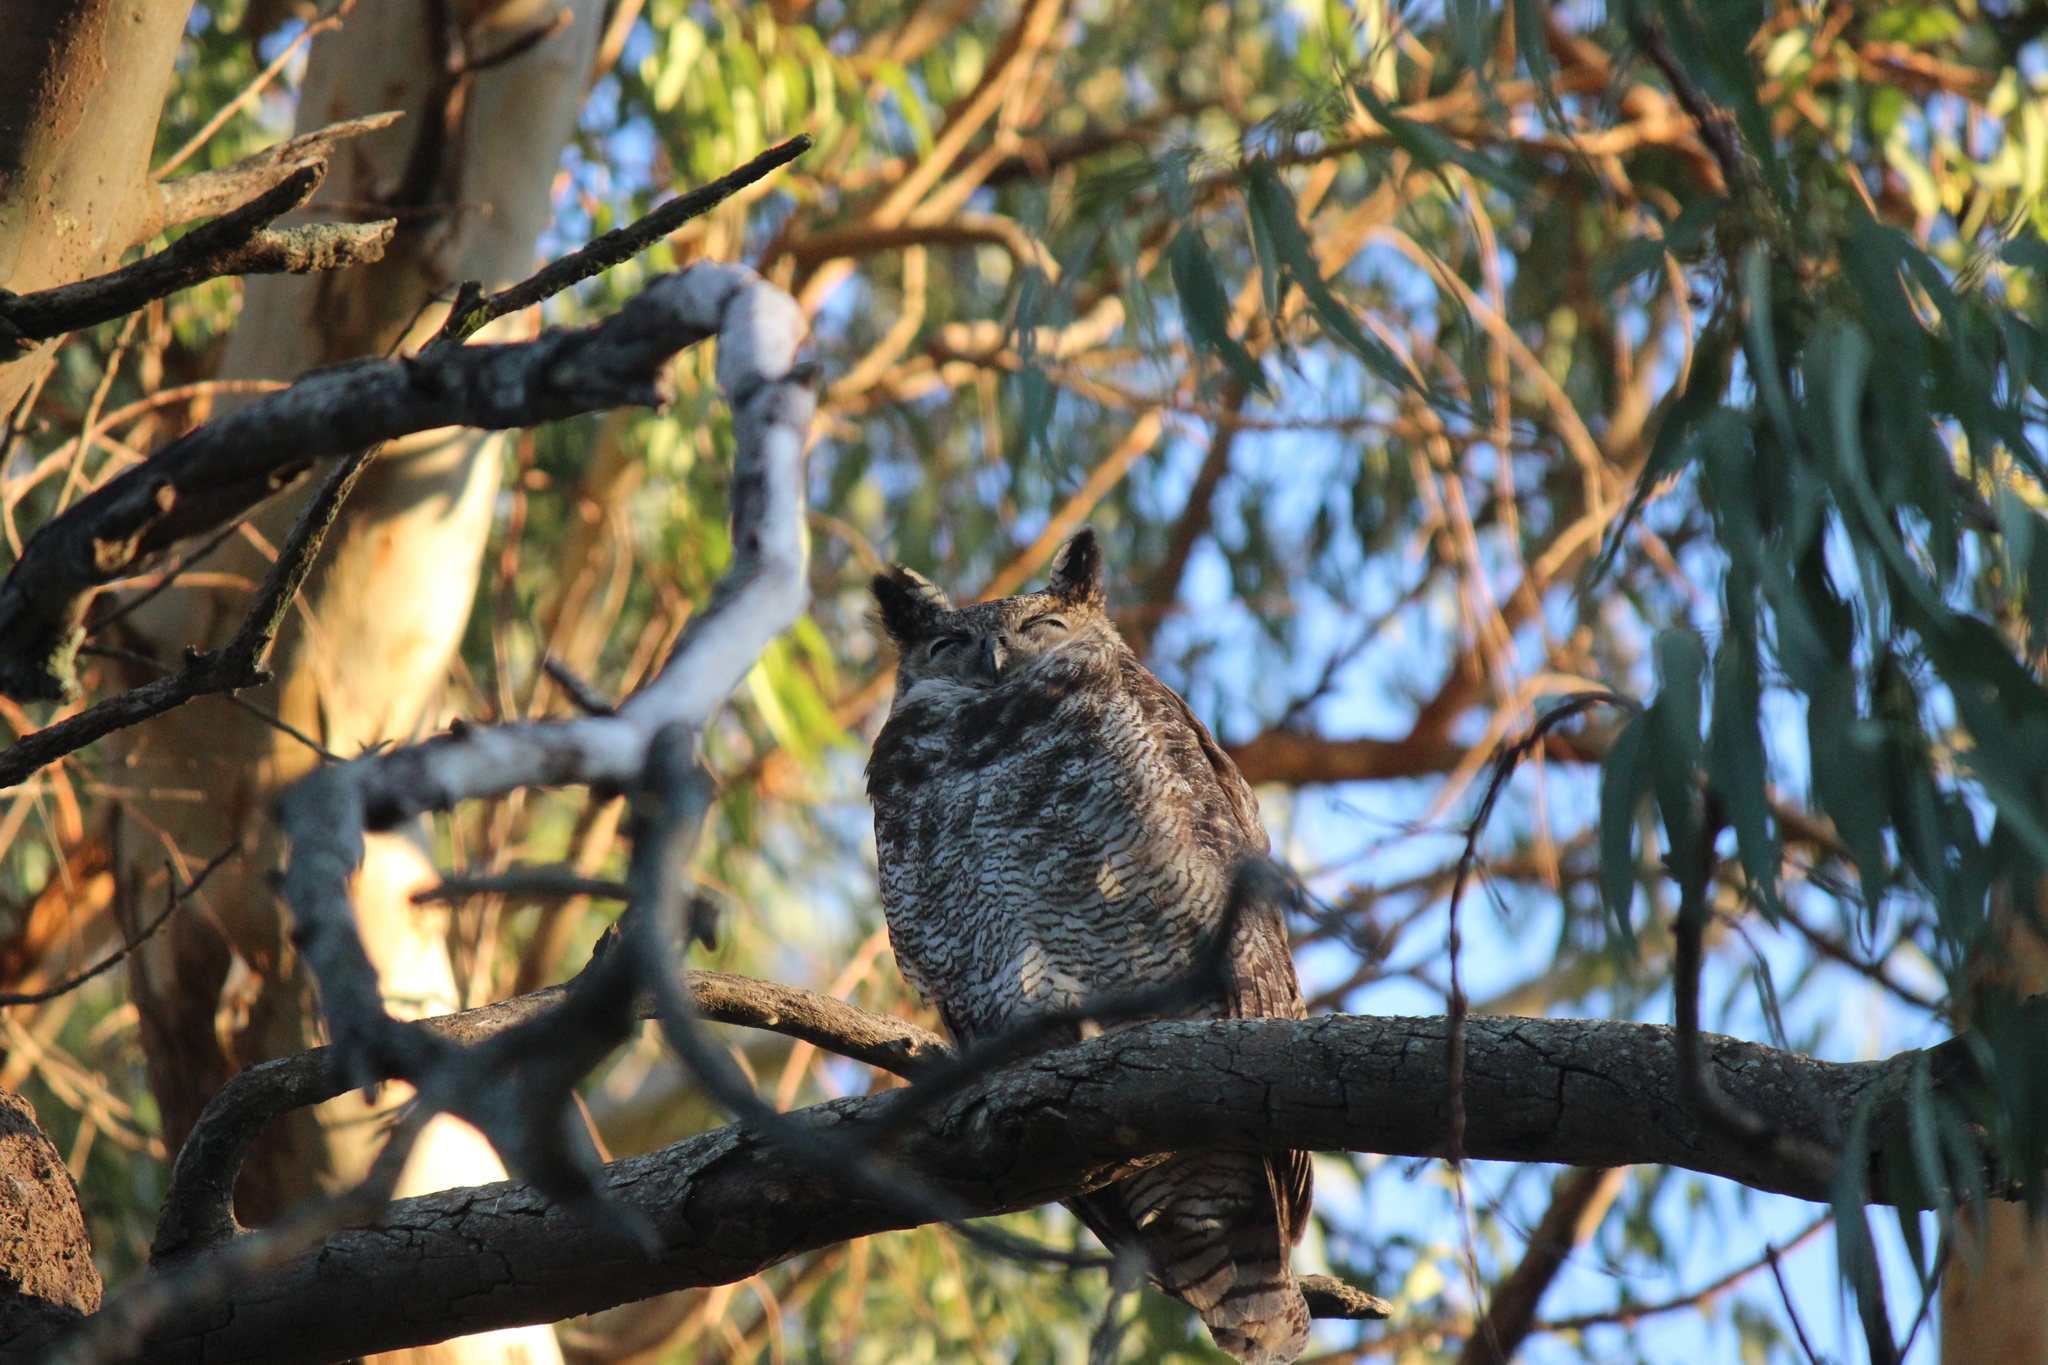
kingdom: Animalia
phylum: Chordata
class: Aves
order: Strigiformes
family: Strigidae
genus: Bubo
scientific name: Bubo virginianus
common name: Great horned owl
